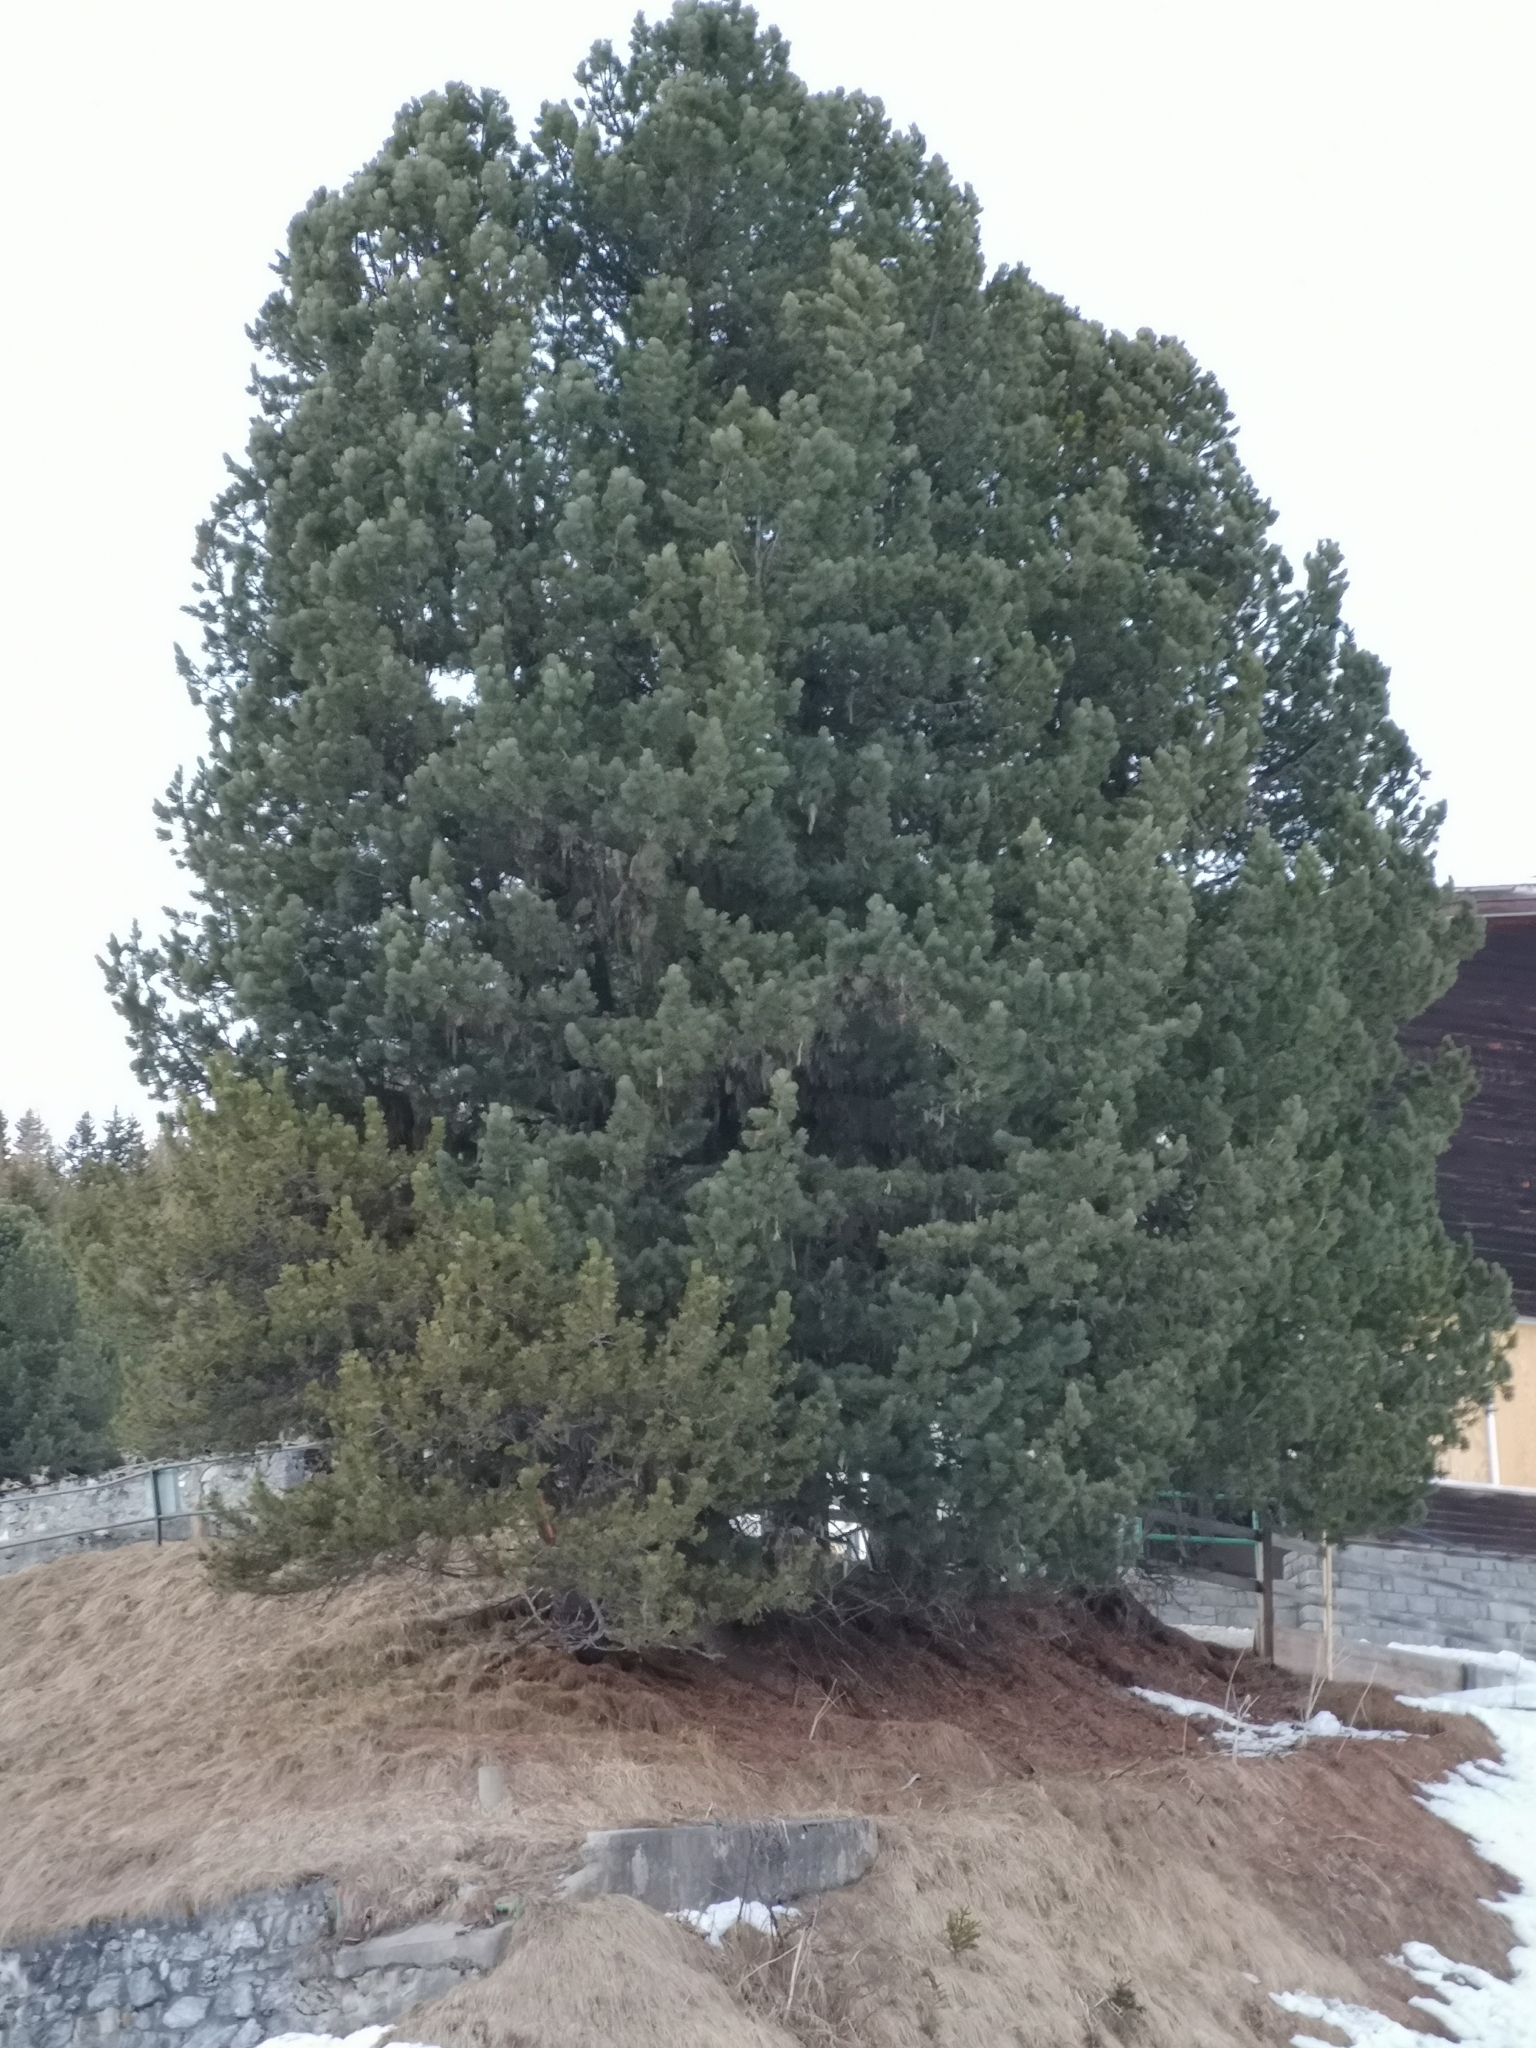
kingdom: Plantae
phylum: Tracheophyta
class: Pinopsida
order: Pinales
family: Pinaceae
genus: Pinus
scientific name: Pinus cembra
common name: Arolla pine
